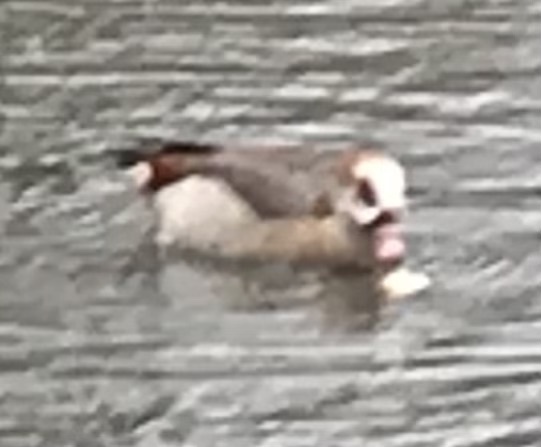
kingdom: Animalia
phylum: Chordata
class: Aves
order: Anseriformes
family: Anatidae
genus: Alopochen
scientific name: Alopochen aegyptiaca
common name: Egyptian goose
